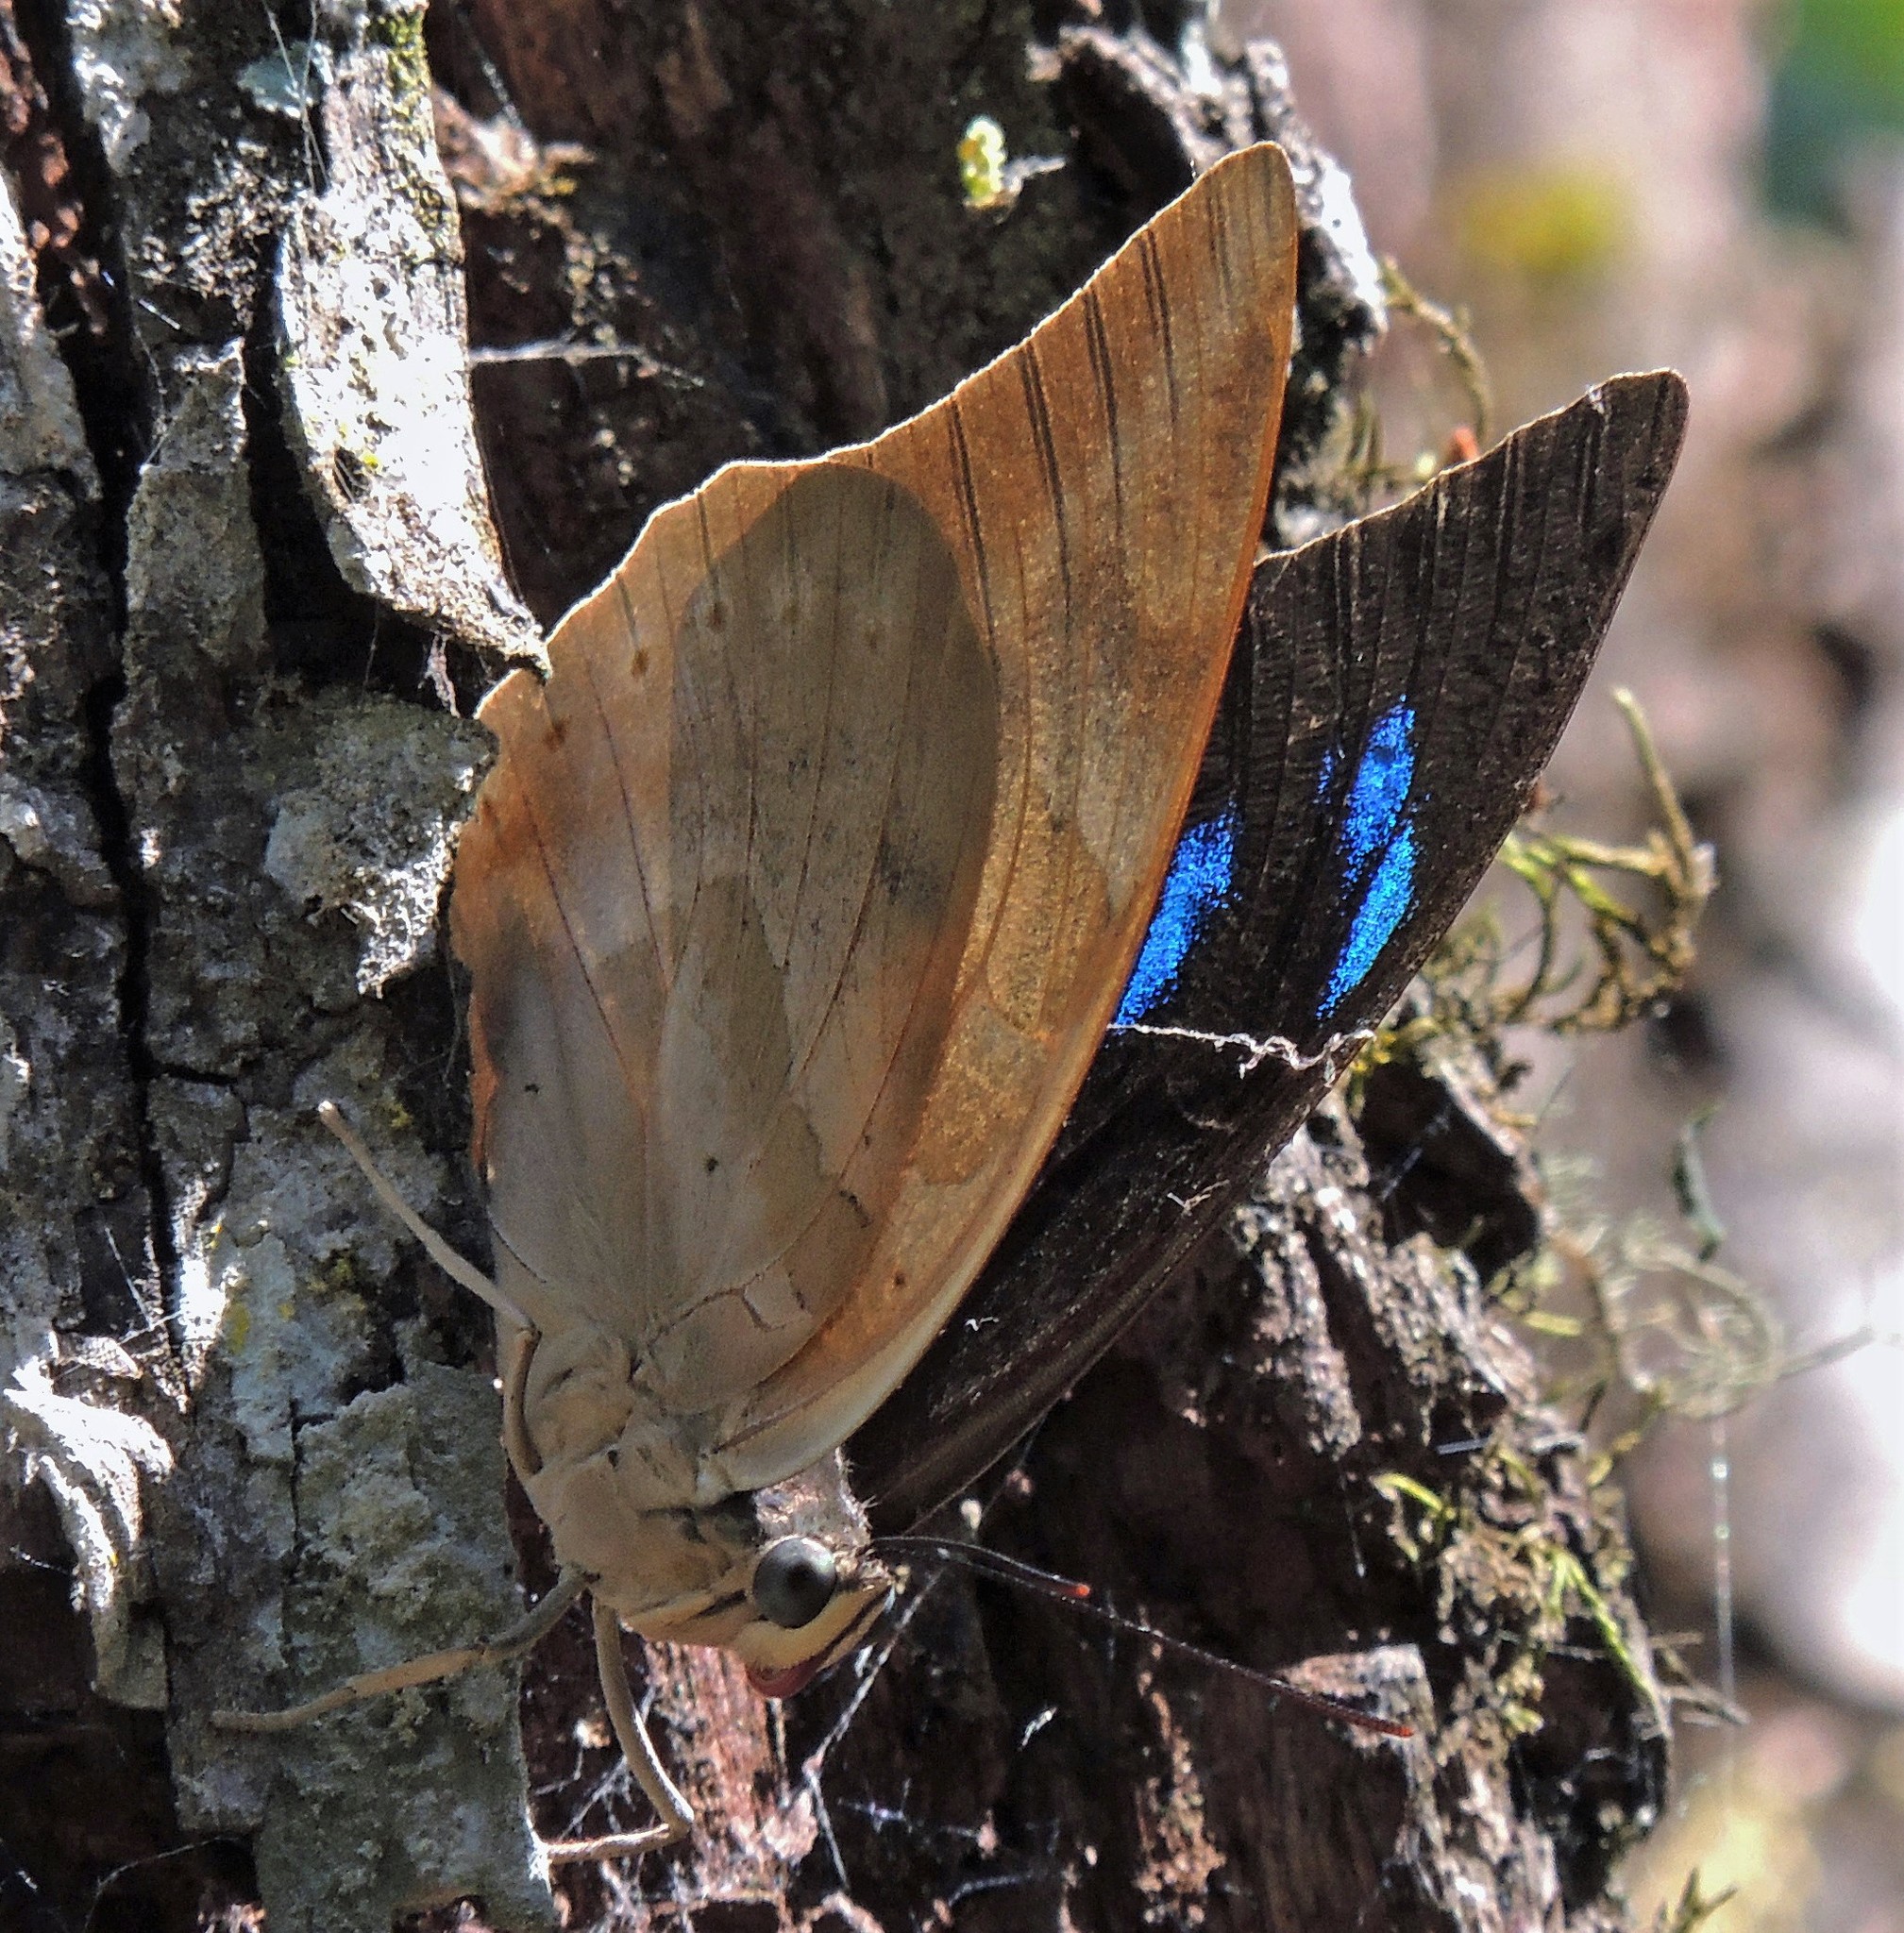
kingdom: Animalia
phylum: Arthropoda
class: Insecta
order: Lepidoptera
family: Nymphalidae
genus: Prepona
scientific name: Prepona demophon
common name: One-spotted prepona
